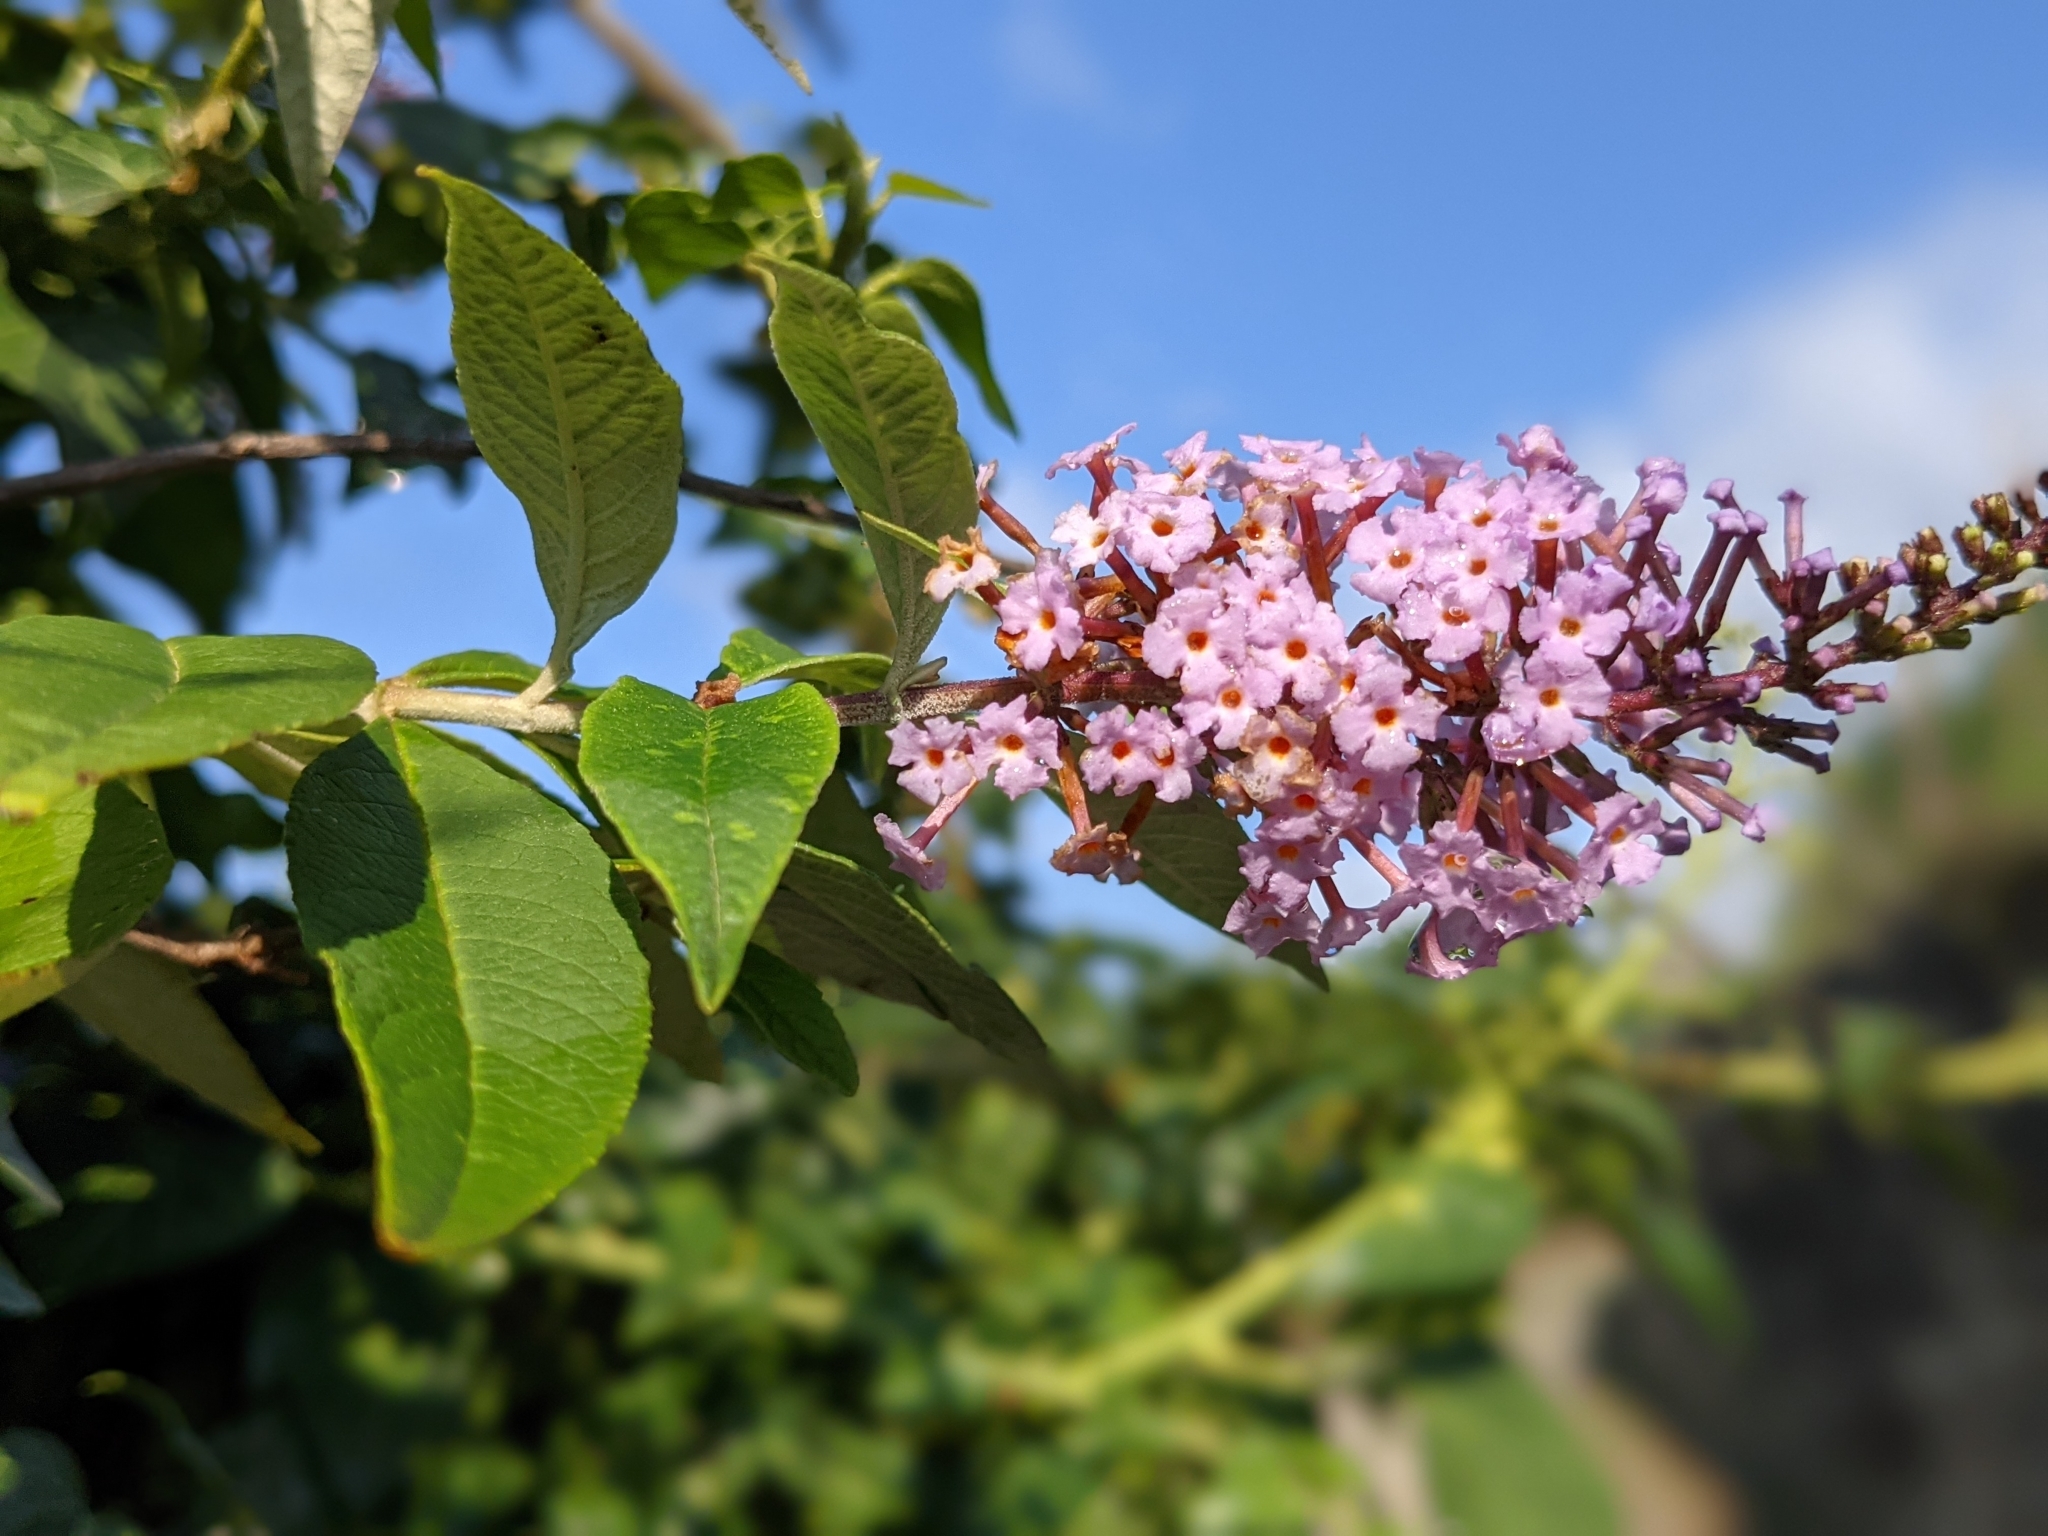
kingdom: Plantae
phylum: Tracheophyta
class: Magnoliopsida
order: Lamiales
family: Scrophulariaceae
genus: Buddleja
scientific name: Buddleja davidii
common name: Butterfly-bush
